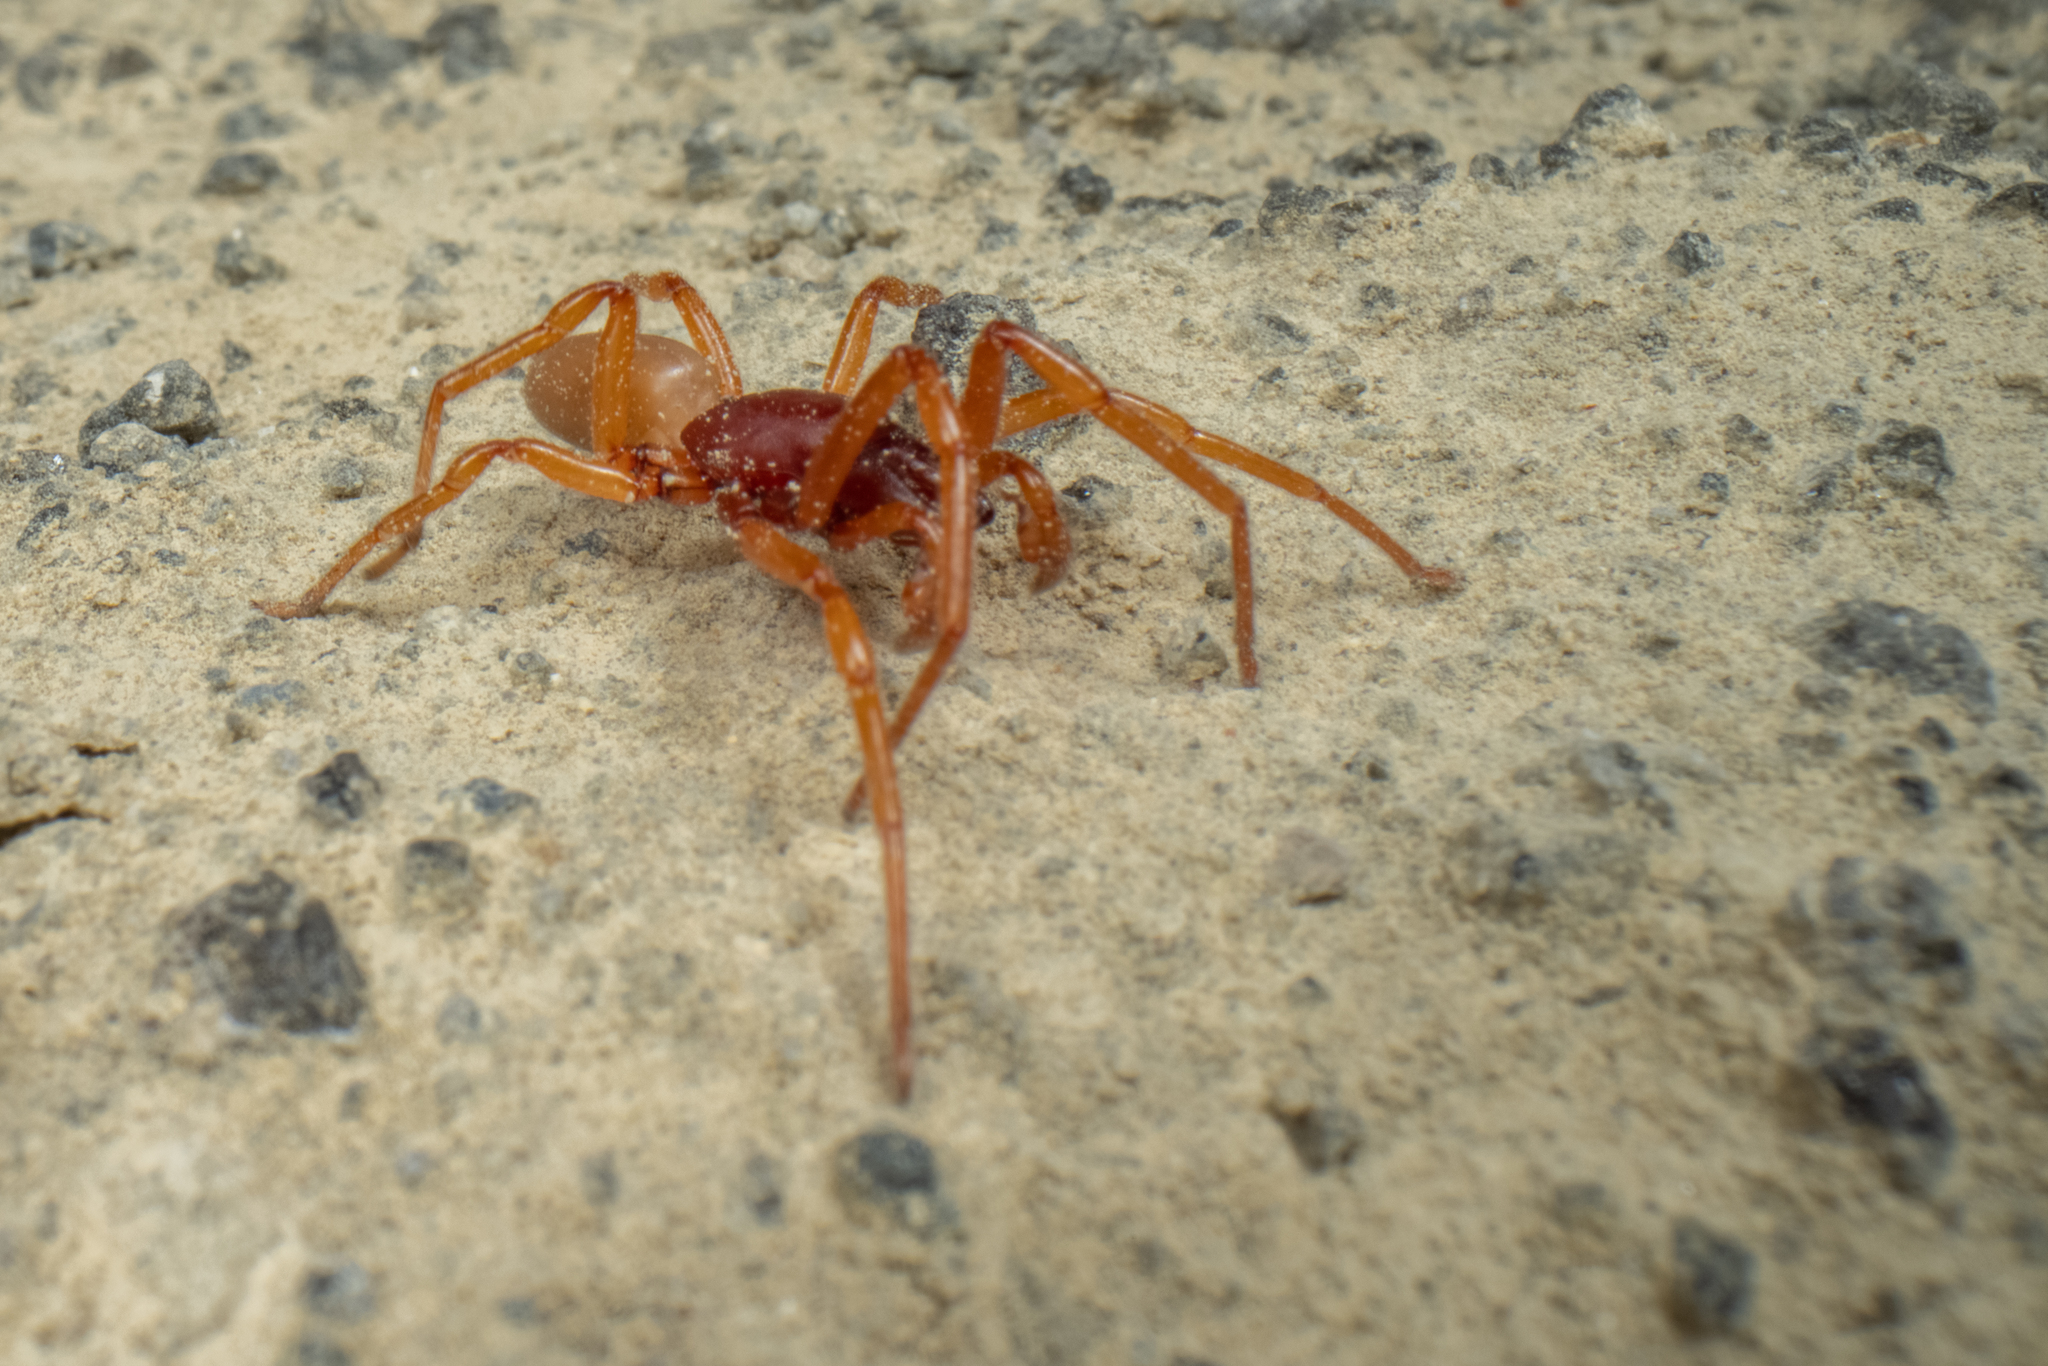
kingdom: Animalia
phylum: Arthropoda
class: Arachnida
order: Araneae
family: Dysderidae
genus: Dysdera
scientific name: Dysdera crocata
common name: Woodlouse spider
